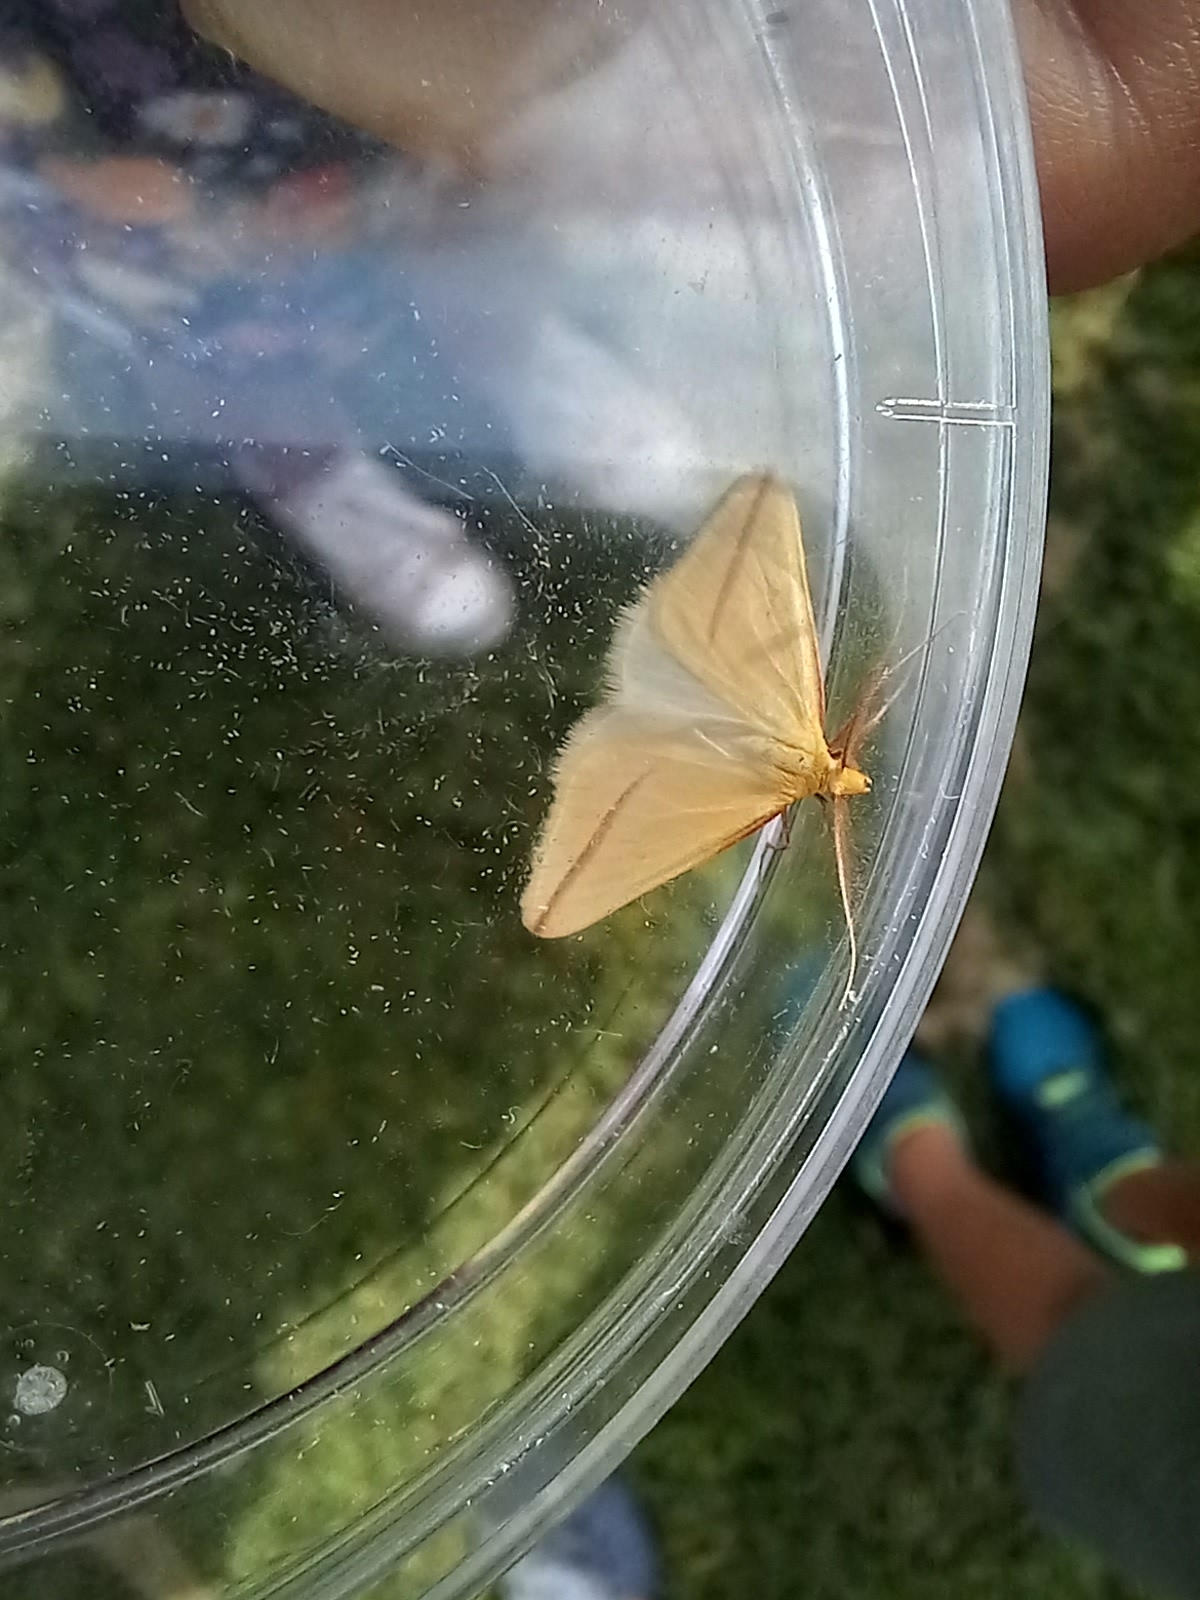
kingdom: Animalia
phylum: Arthropoda
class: Insecta
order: Lepidoptera
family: Geometridae
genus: Rhodometra
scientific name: Rhodometra sacraria
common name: Vestal
